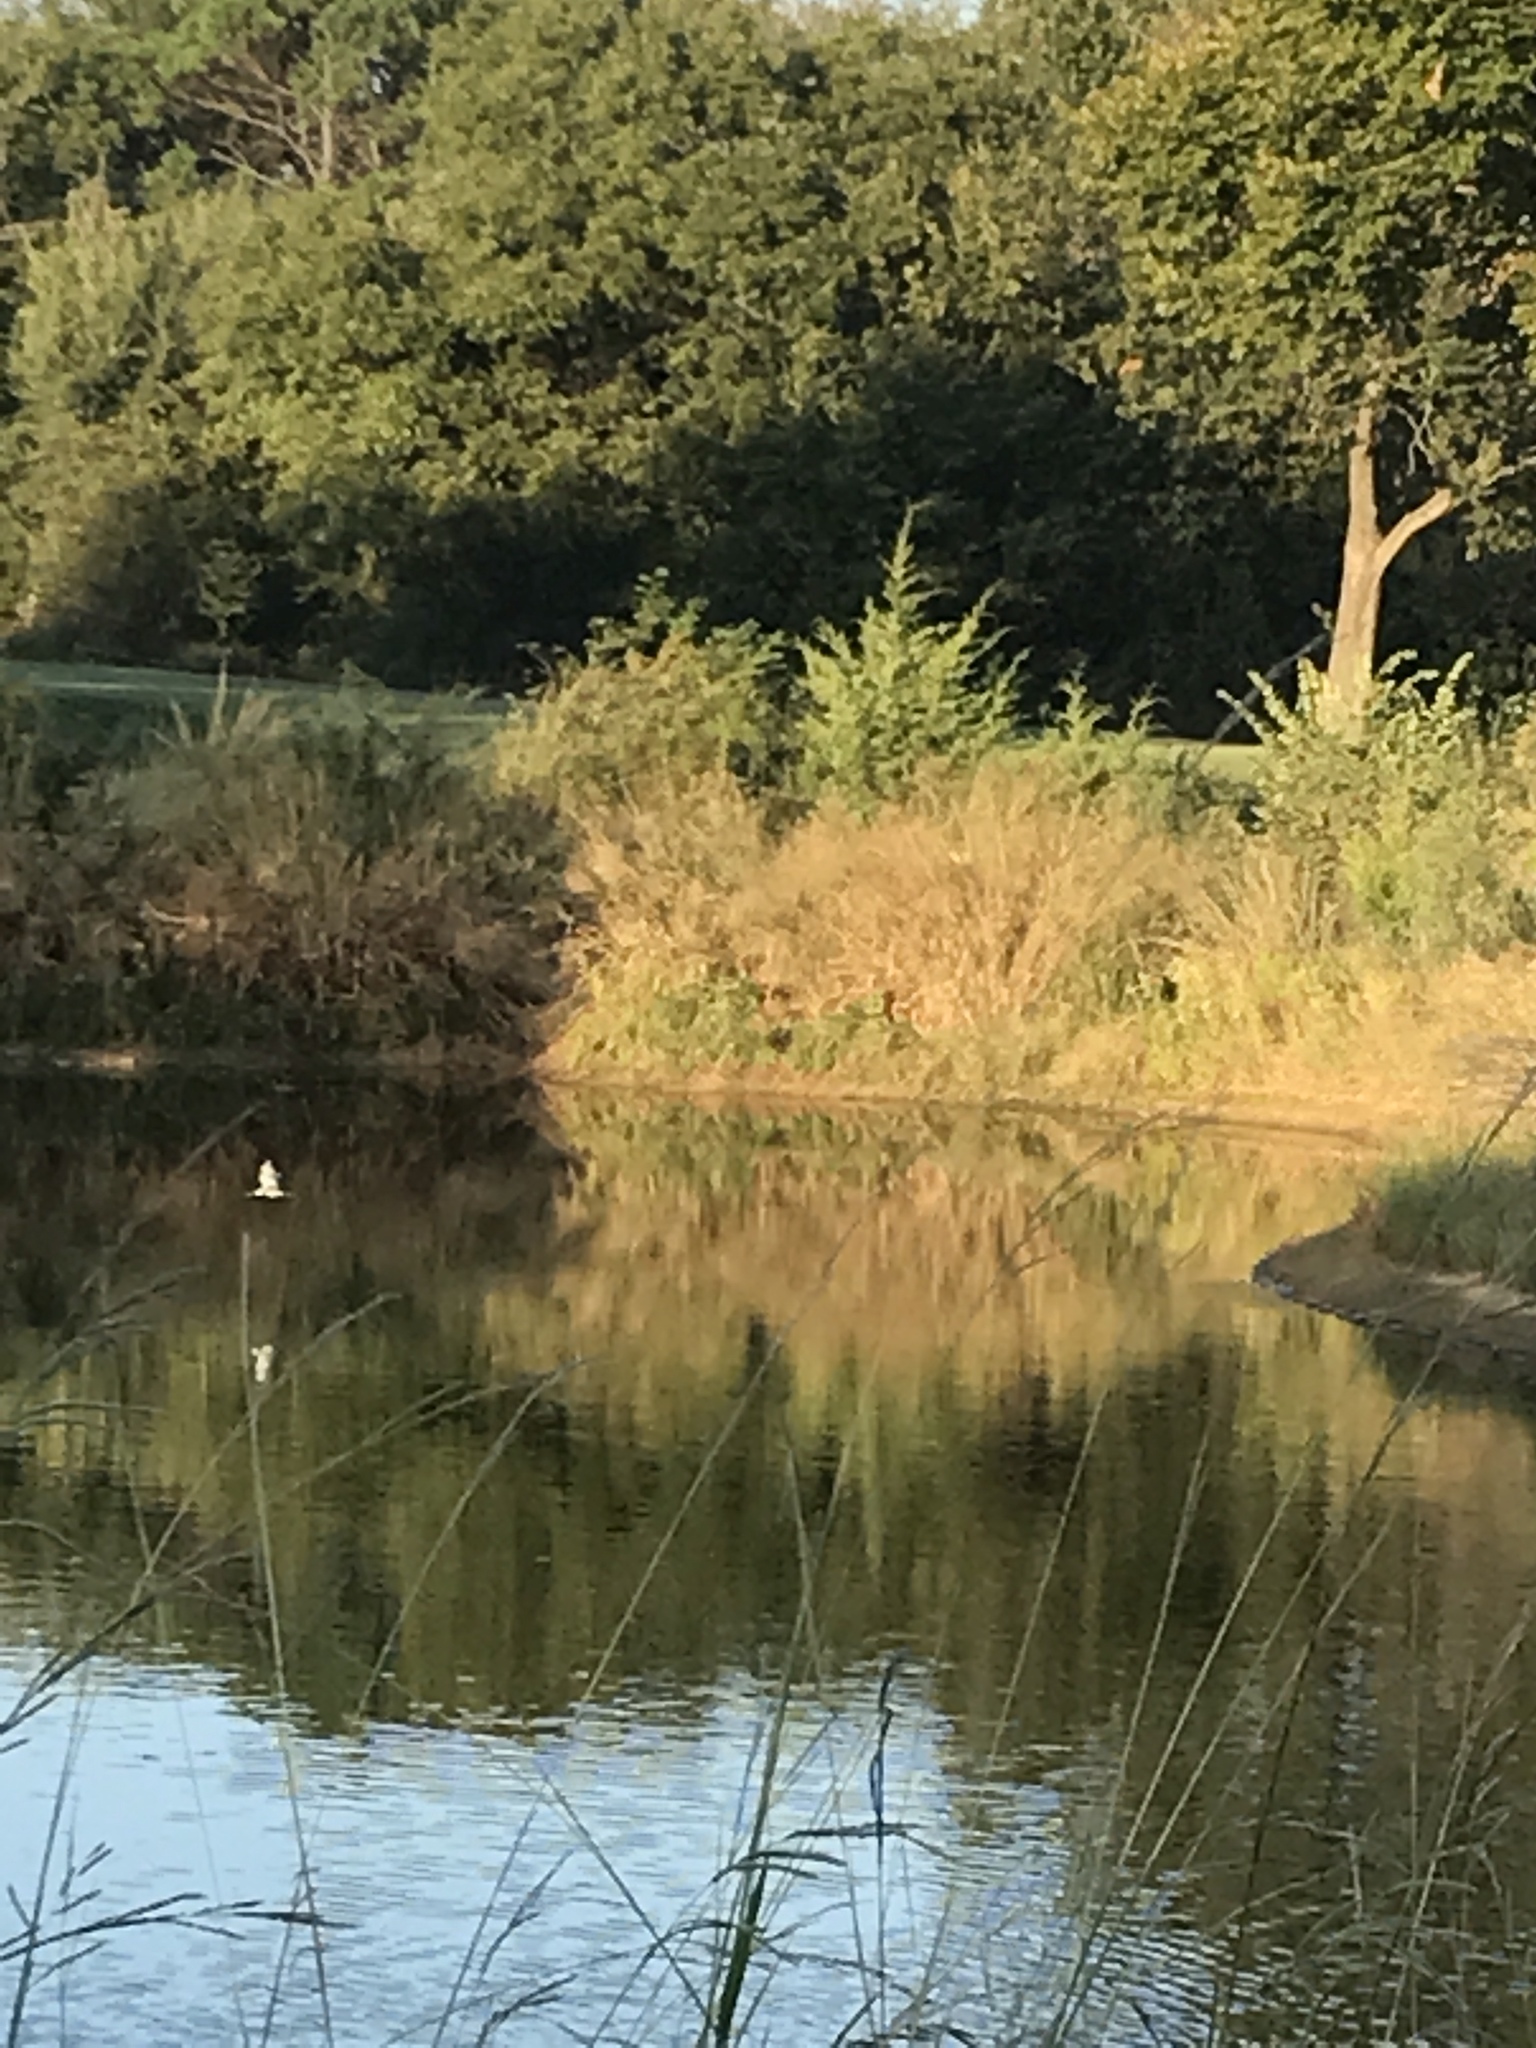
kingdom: Animalia
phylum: Chordata
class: Aves
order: Coraciiformes
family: Alcedinidae
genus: Megaceryle
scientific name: Megaceryle alcyon
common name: Belted kingfisher
